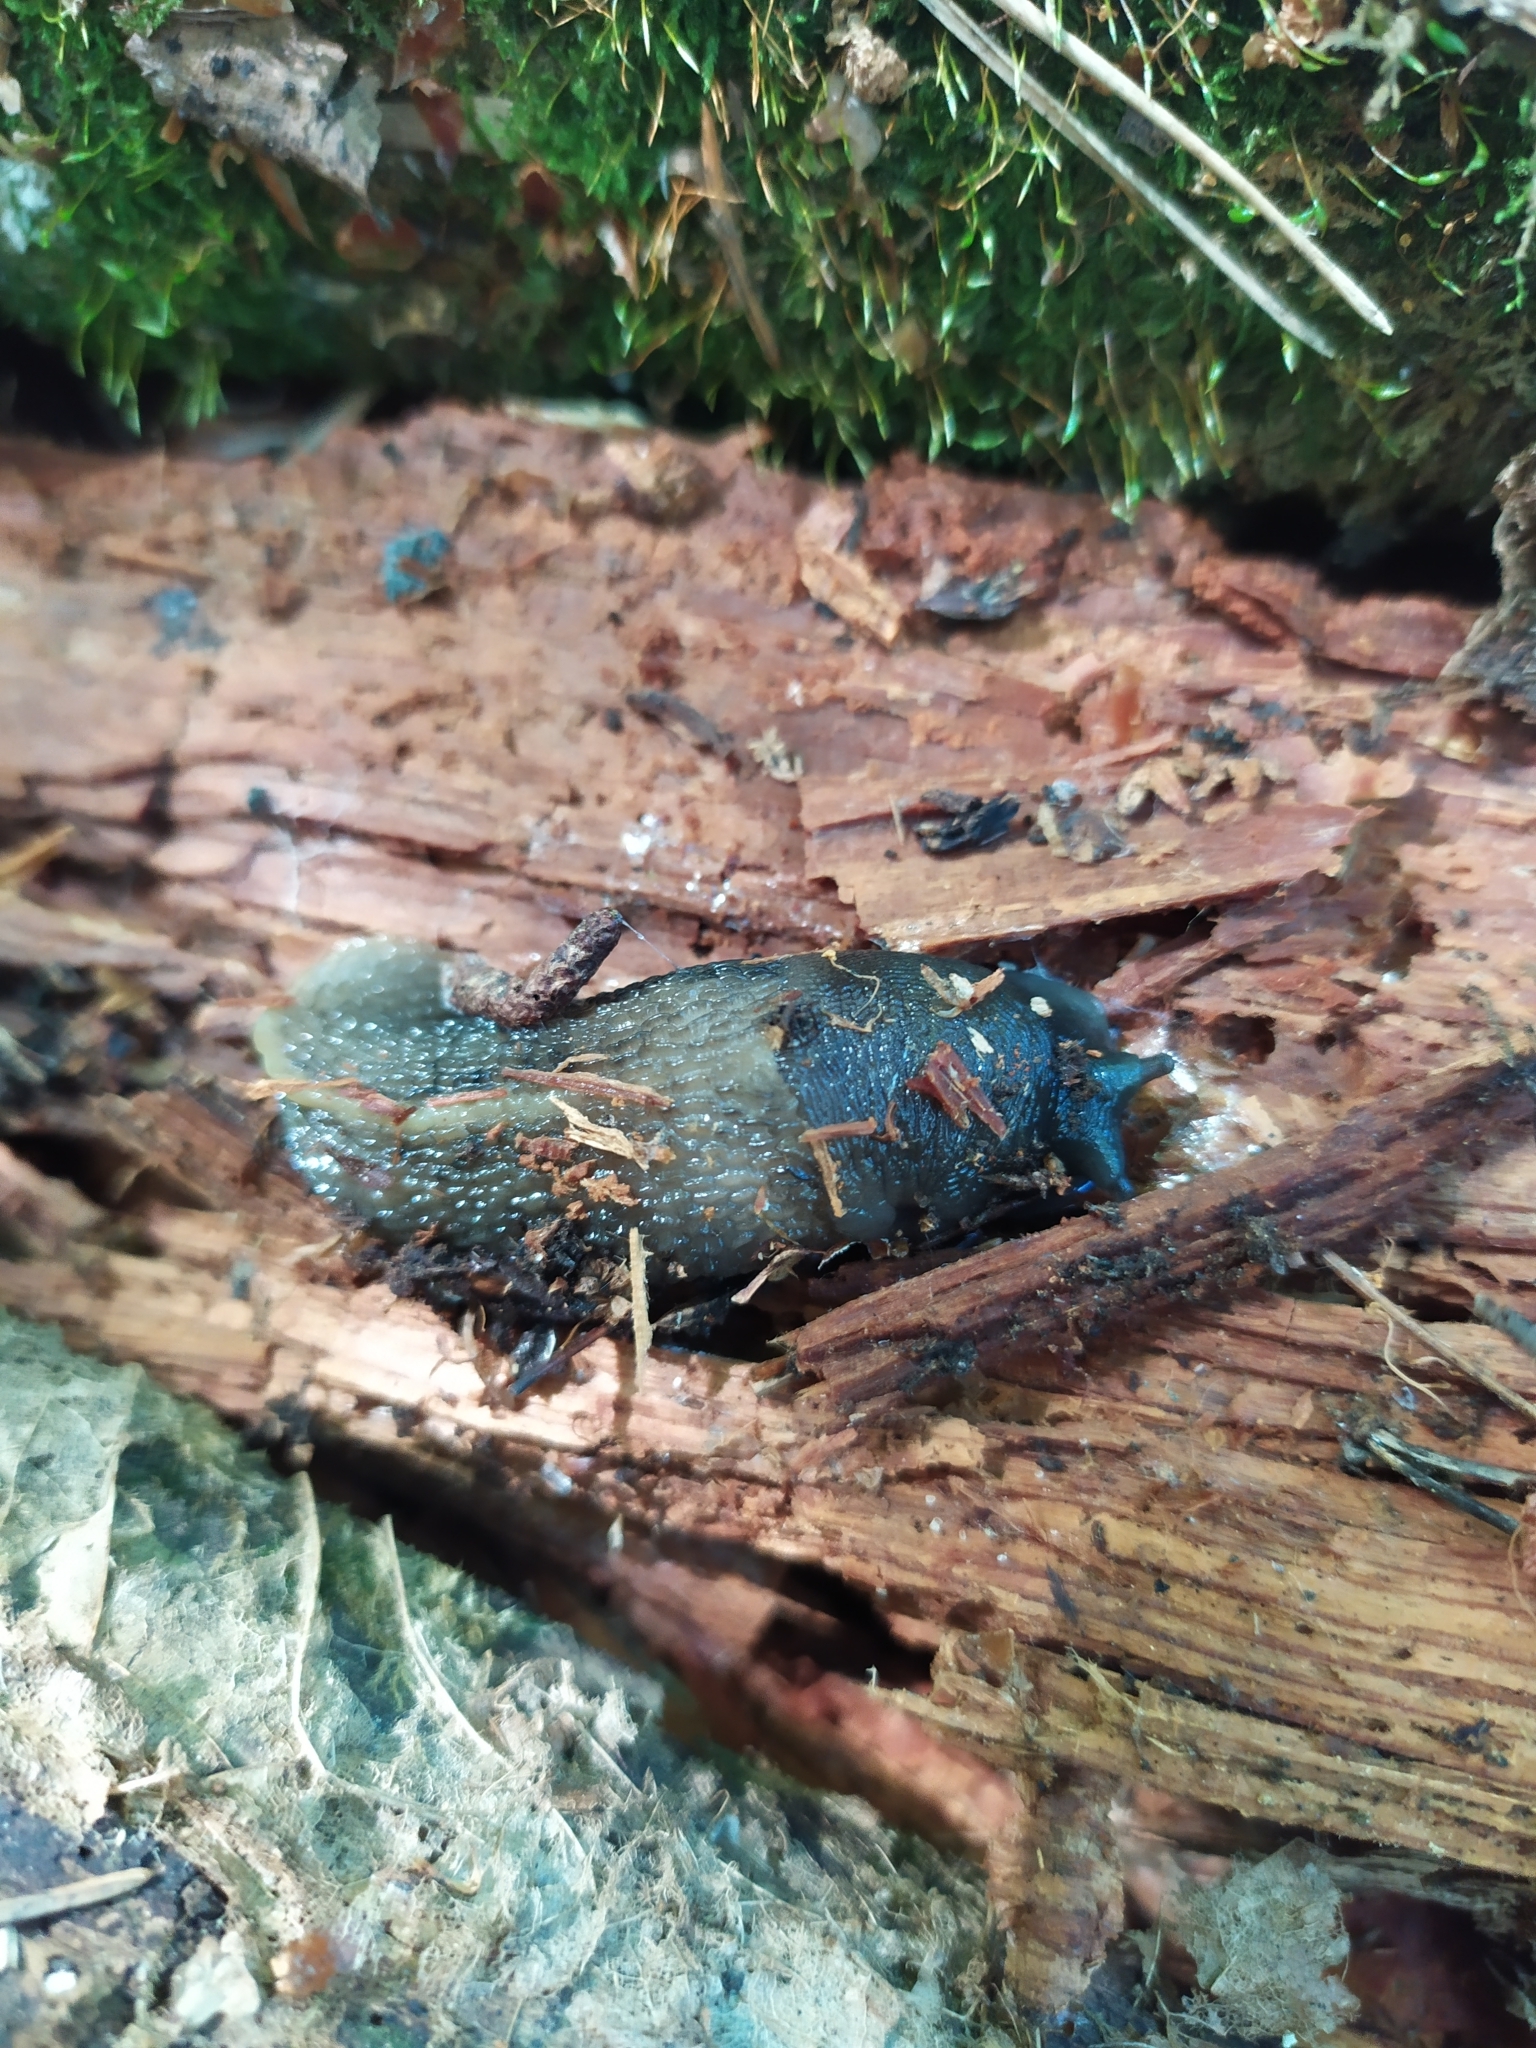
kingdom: Animalia
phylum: Mollusca
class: Gastropoda
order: Stylommatophora
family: Limacidae
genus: Limax
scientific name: Limax cinereoniger
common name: Ash-black slug
